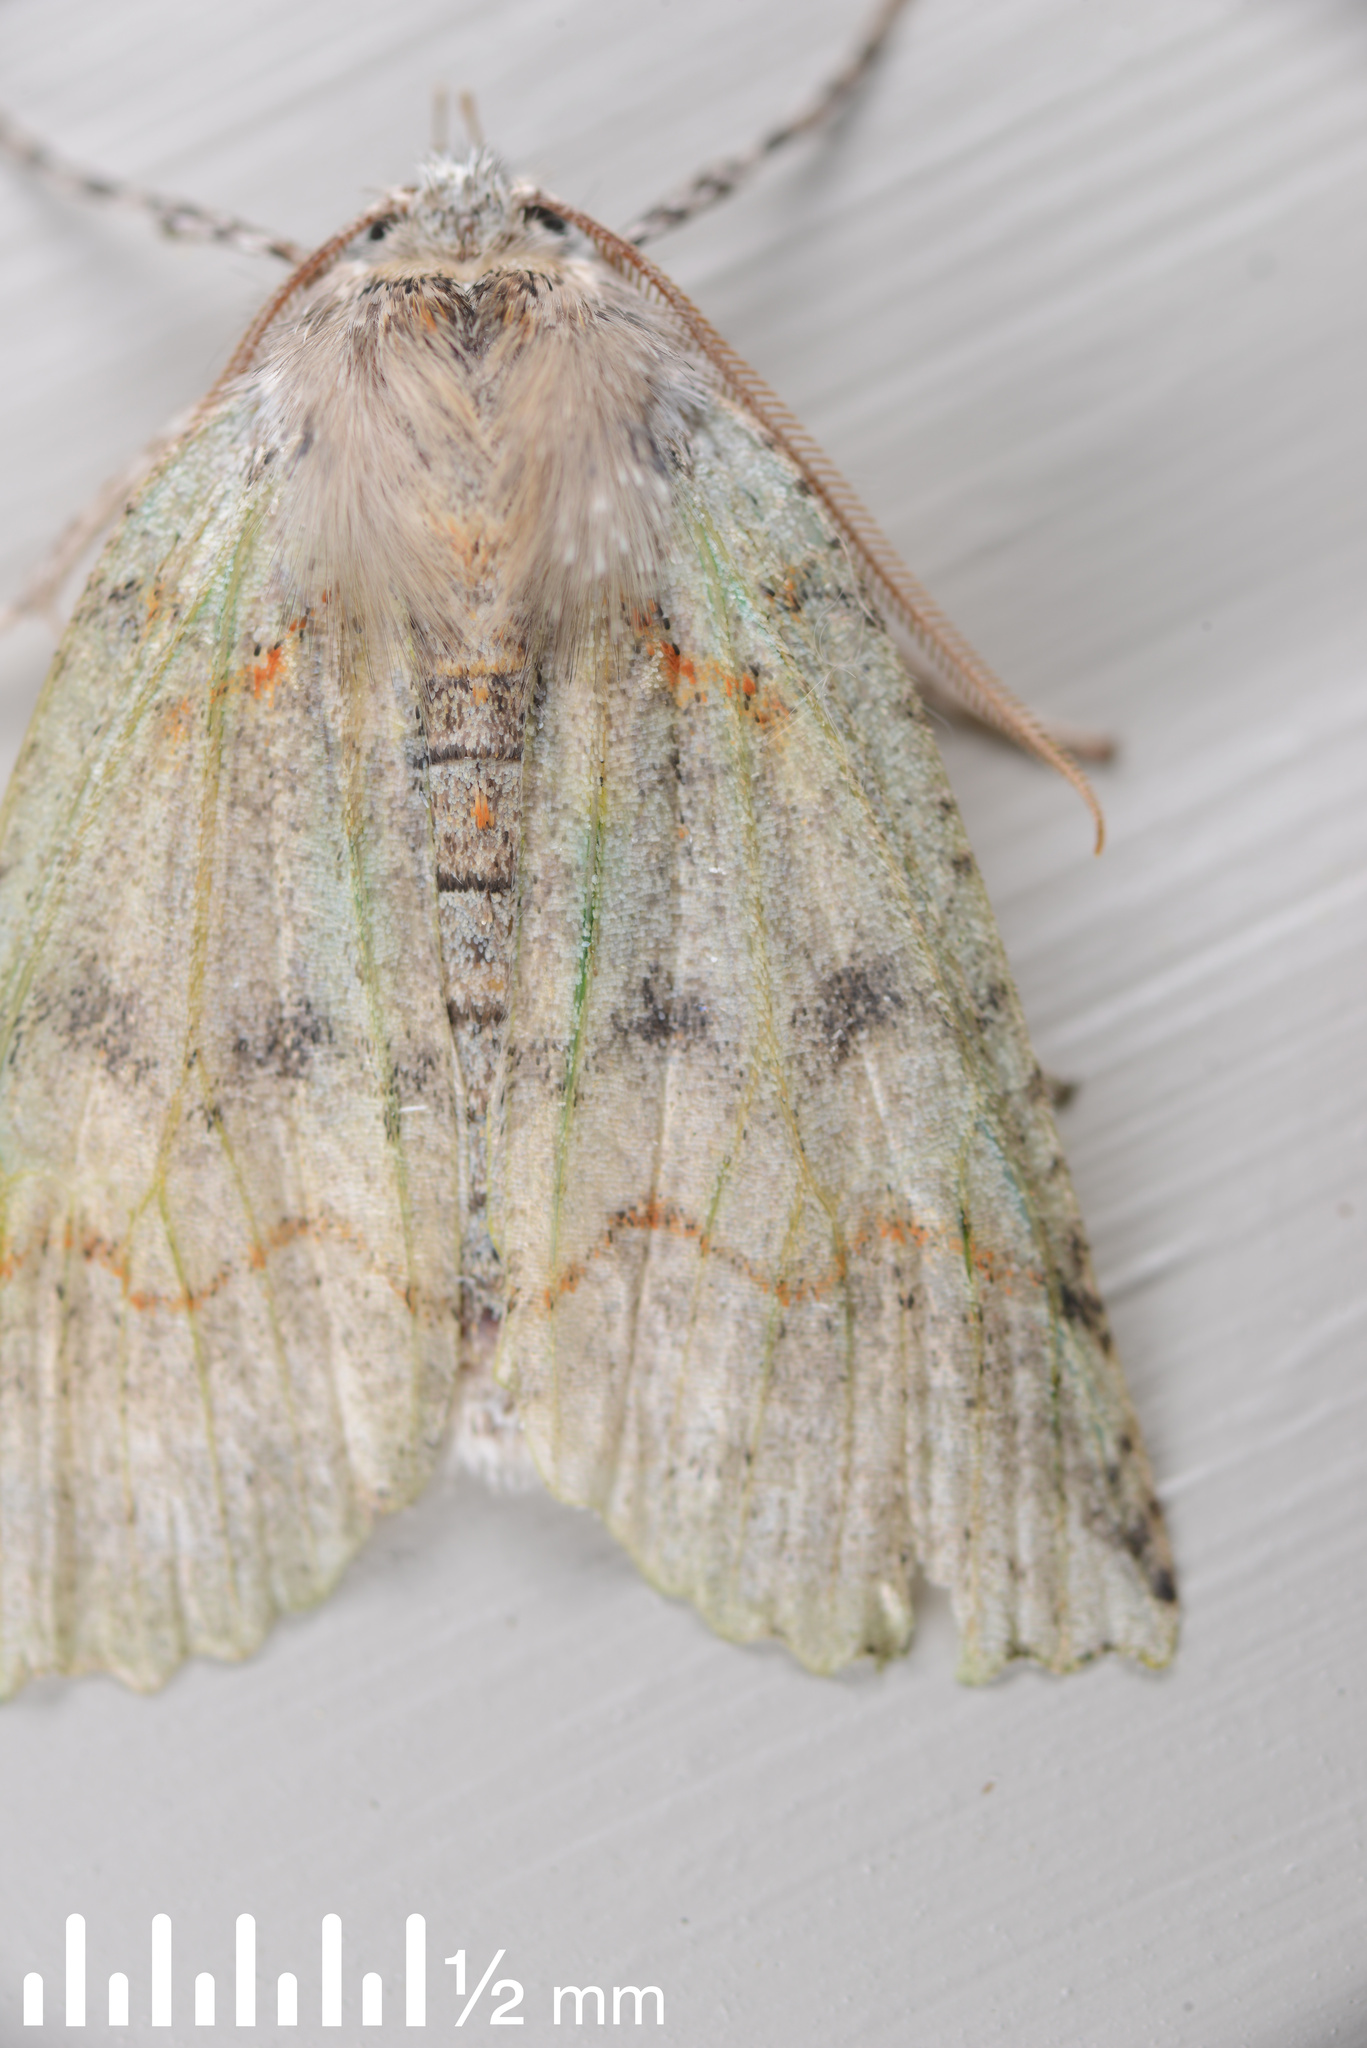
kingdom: Animalia
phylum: Arthropoda
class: Insecta
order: Lepidoptera
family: Geometridae
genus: Declana
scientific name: Declana floccosa
